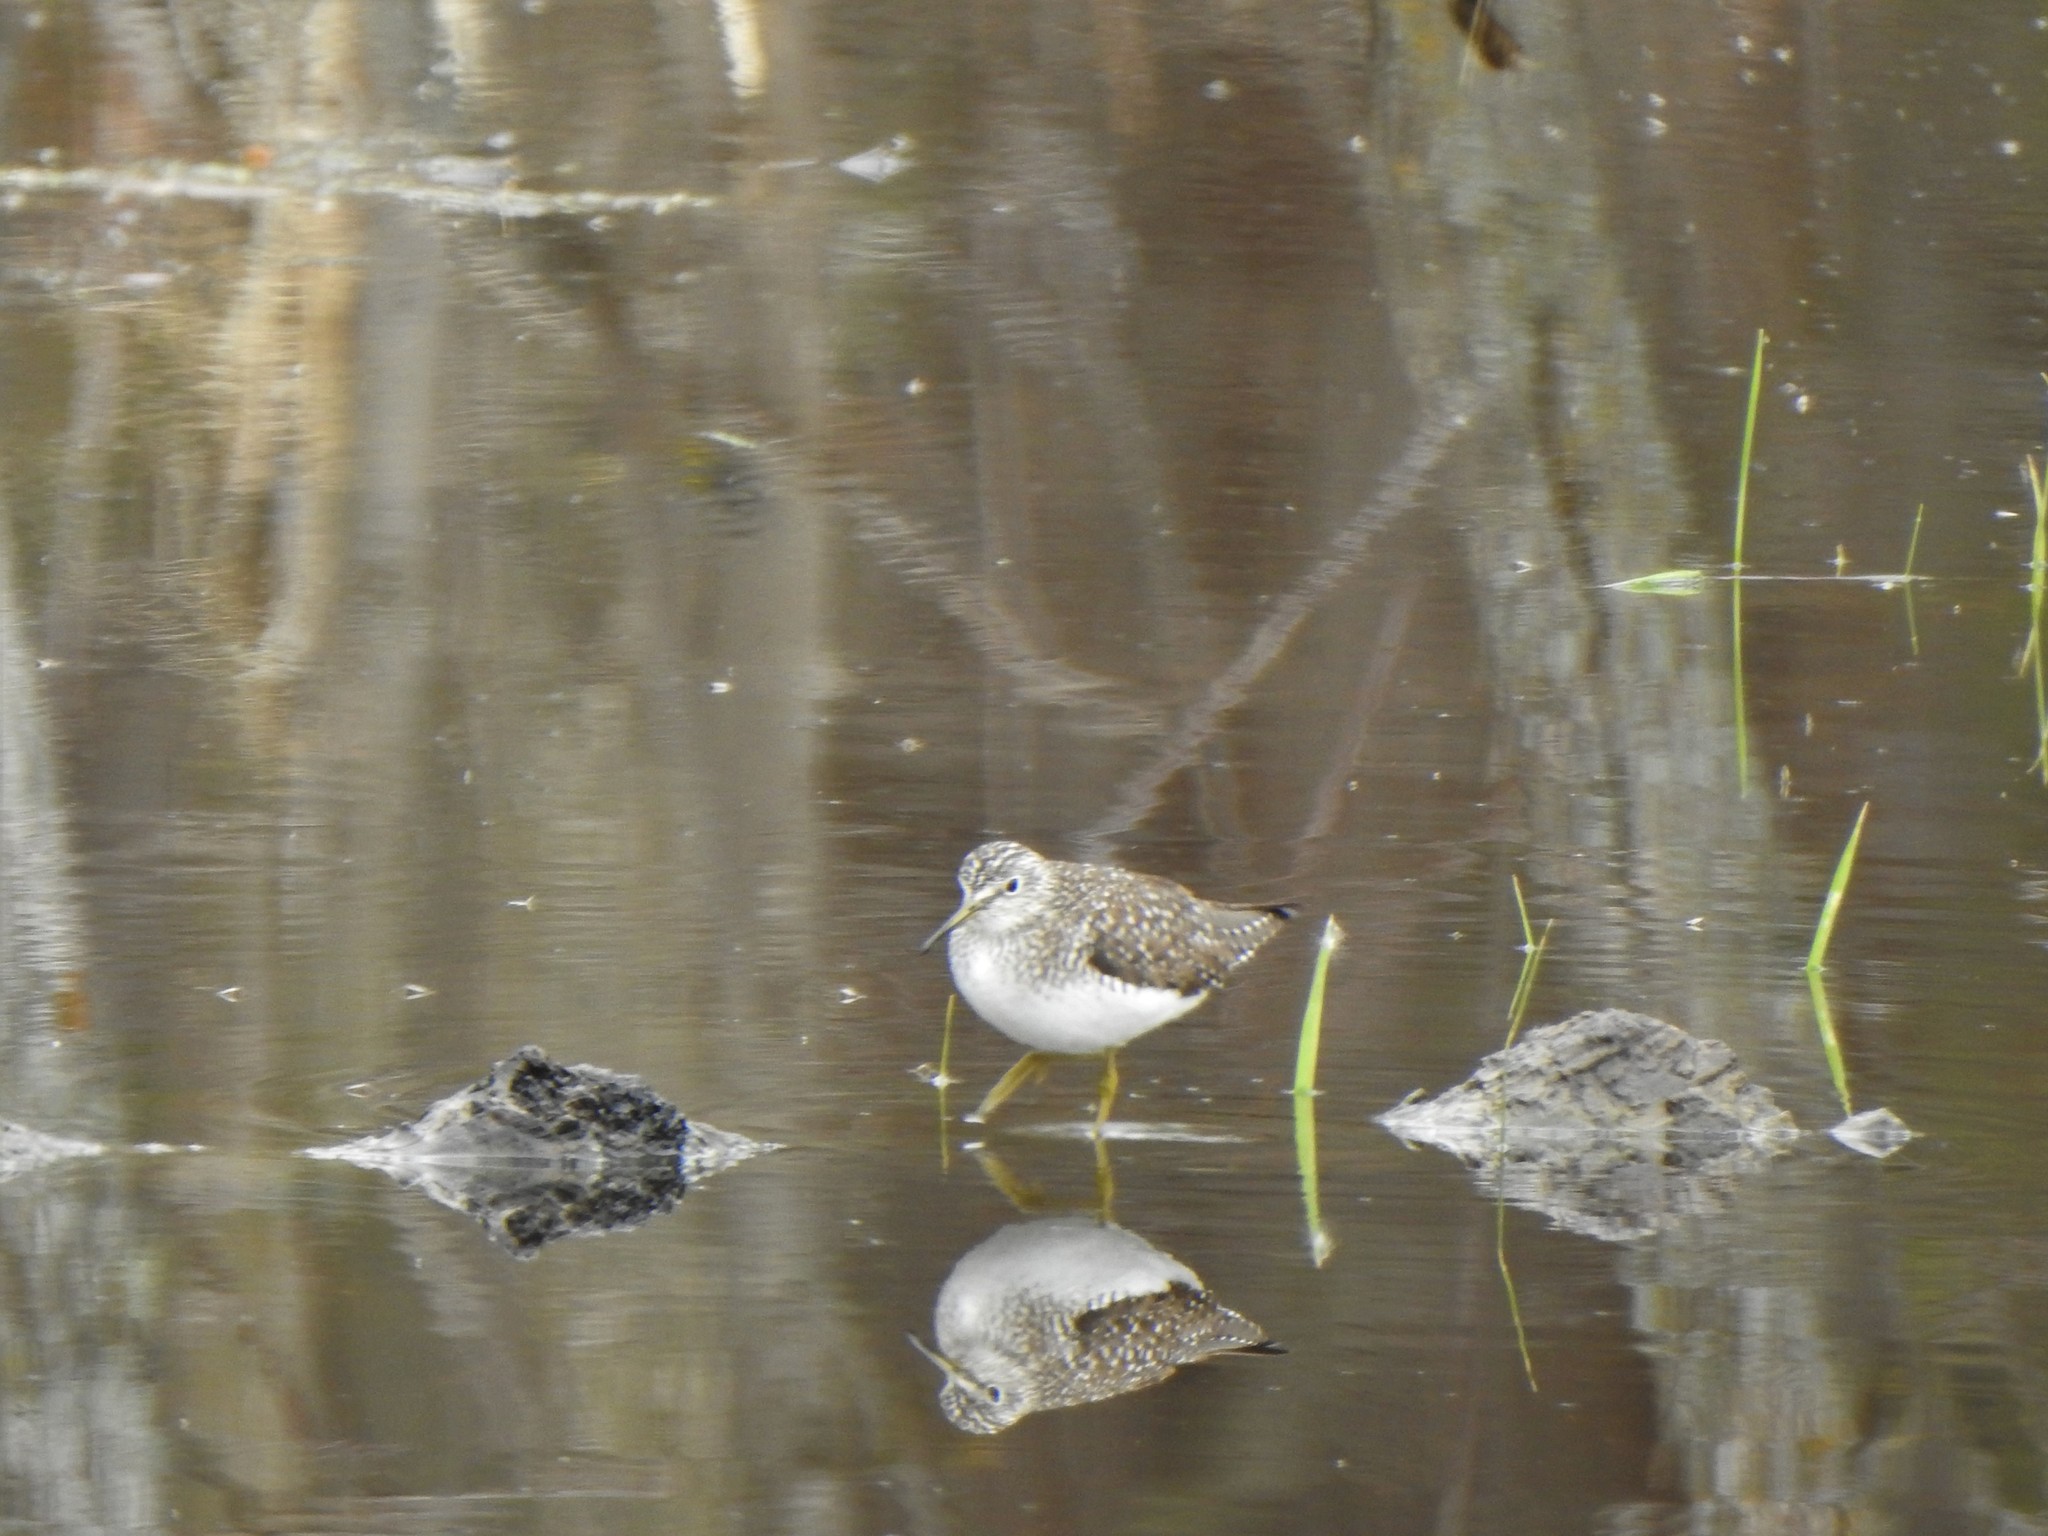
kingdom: Animalia
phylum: Chordata
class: Aves
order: Charadriiformes
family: Scolopacidae
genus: Tringa
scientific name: Tringa solitaria
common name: Solitary sandpiper
